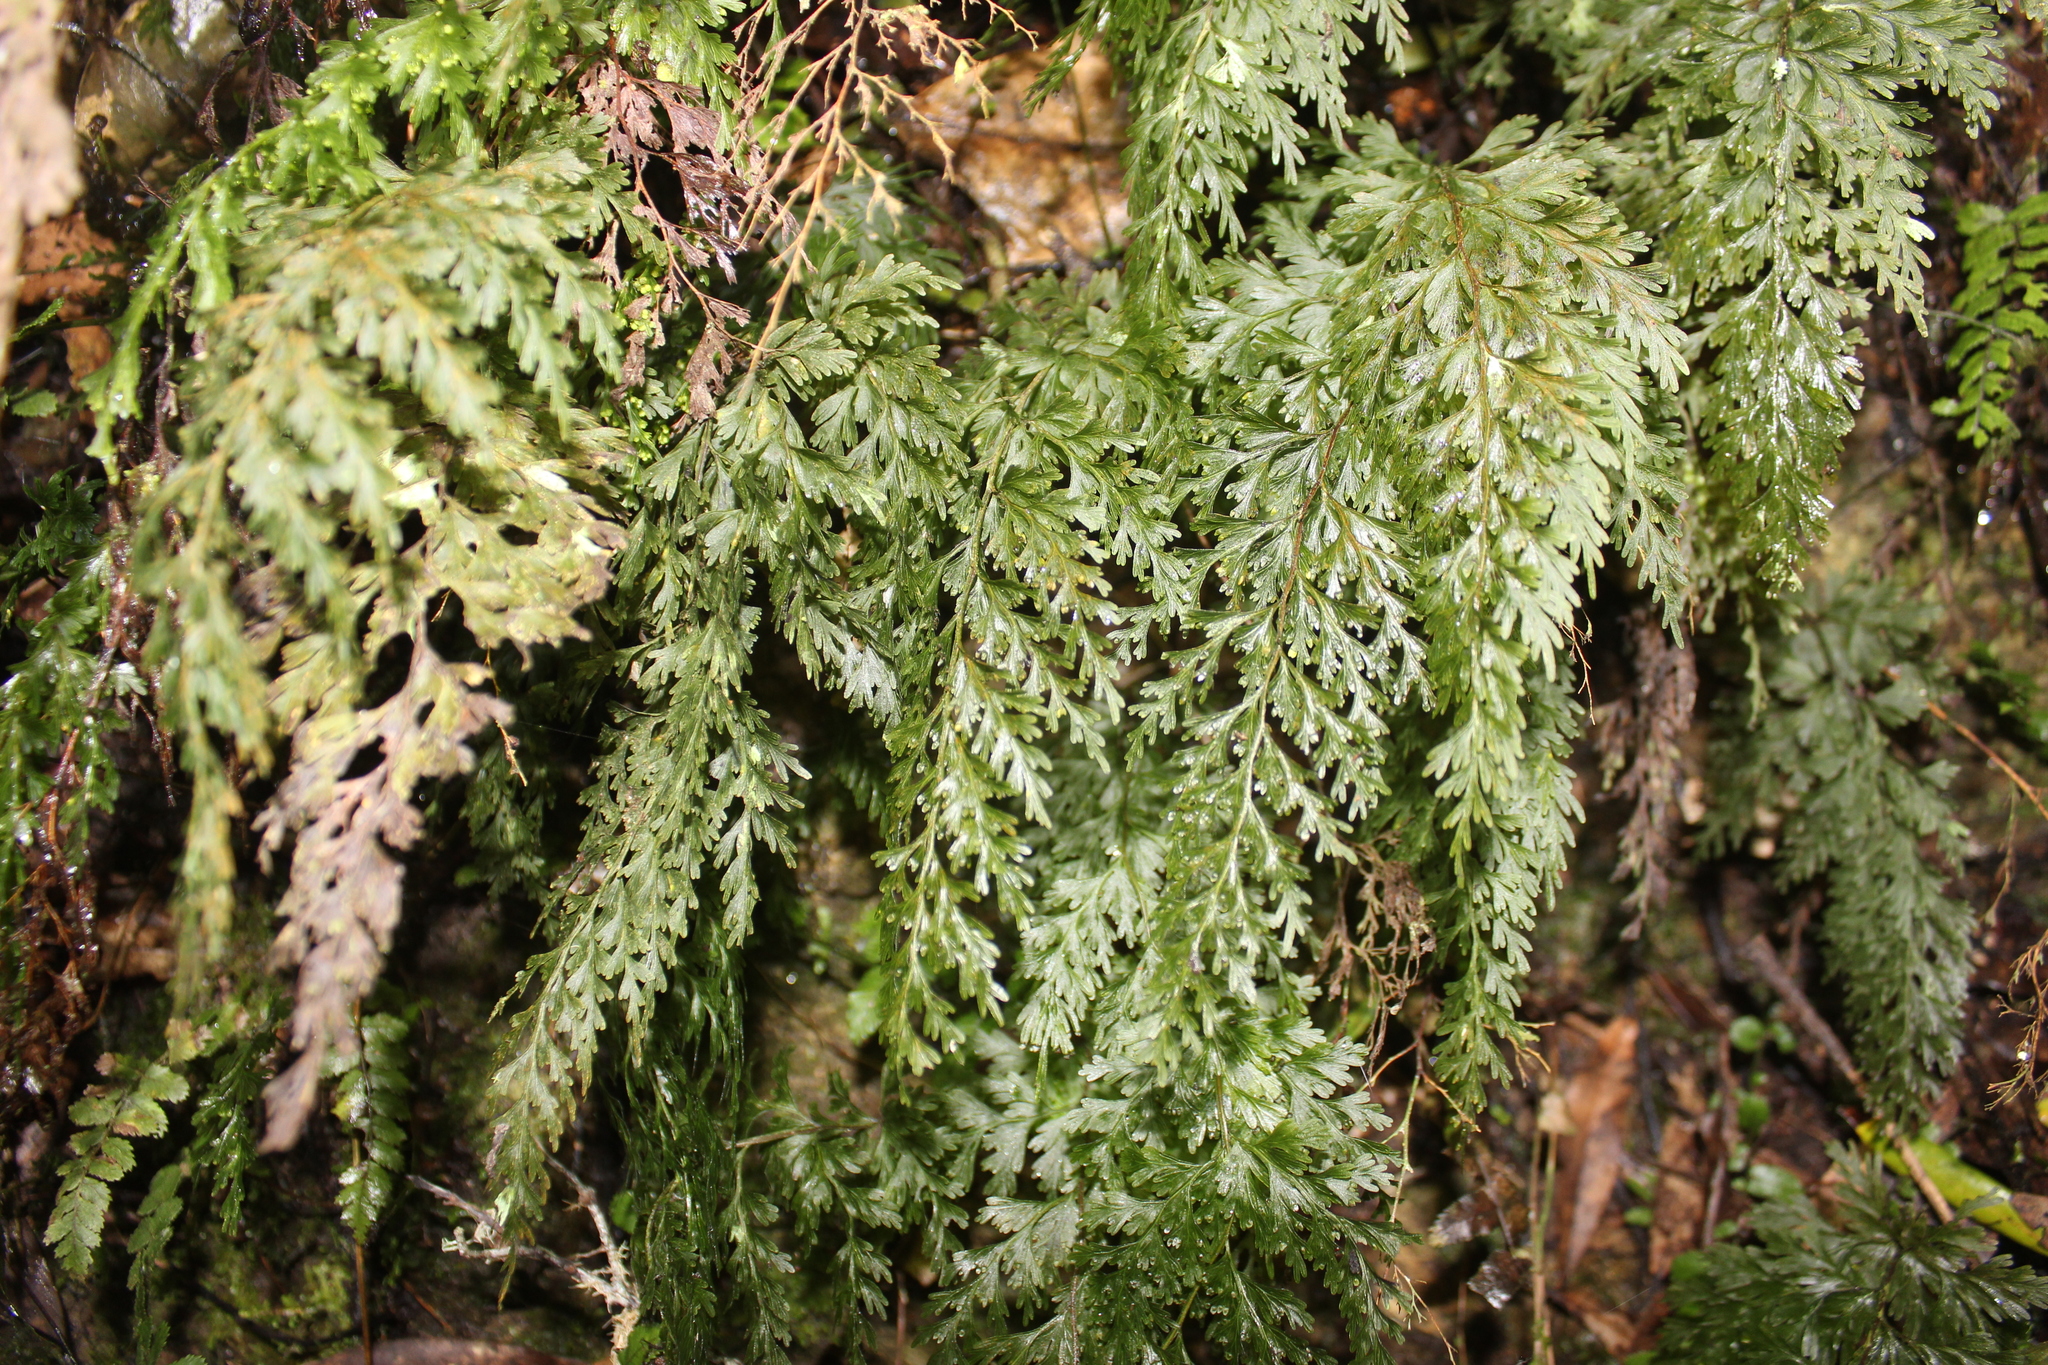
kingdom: Plantae
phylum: Tracheophyta
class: Polypodiopsida
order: Hymenophyllales
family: Hymenophyllaceae
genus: Hymenophyllum
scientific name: Hymenophyllum demissum
